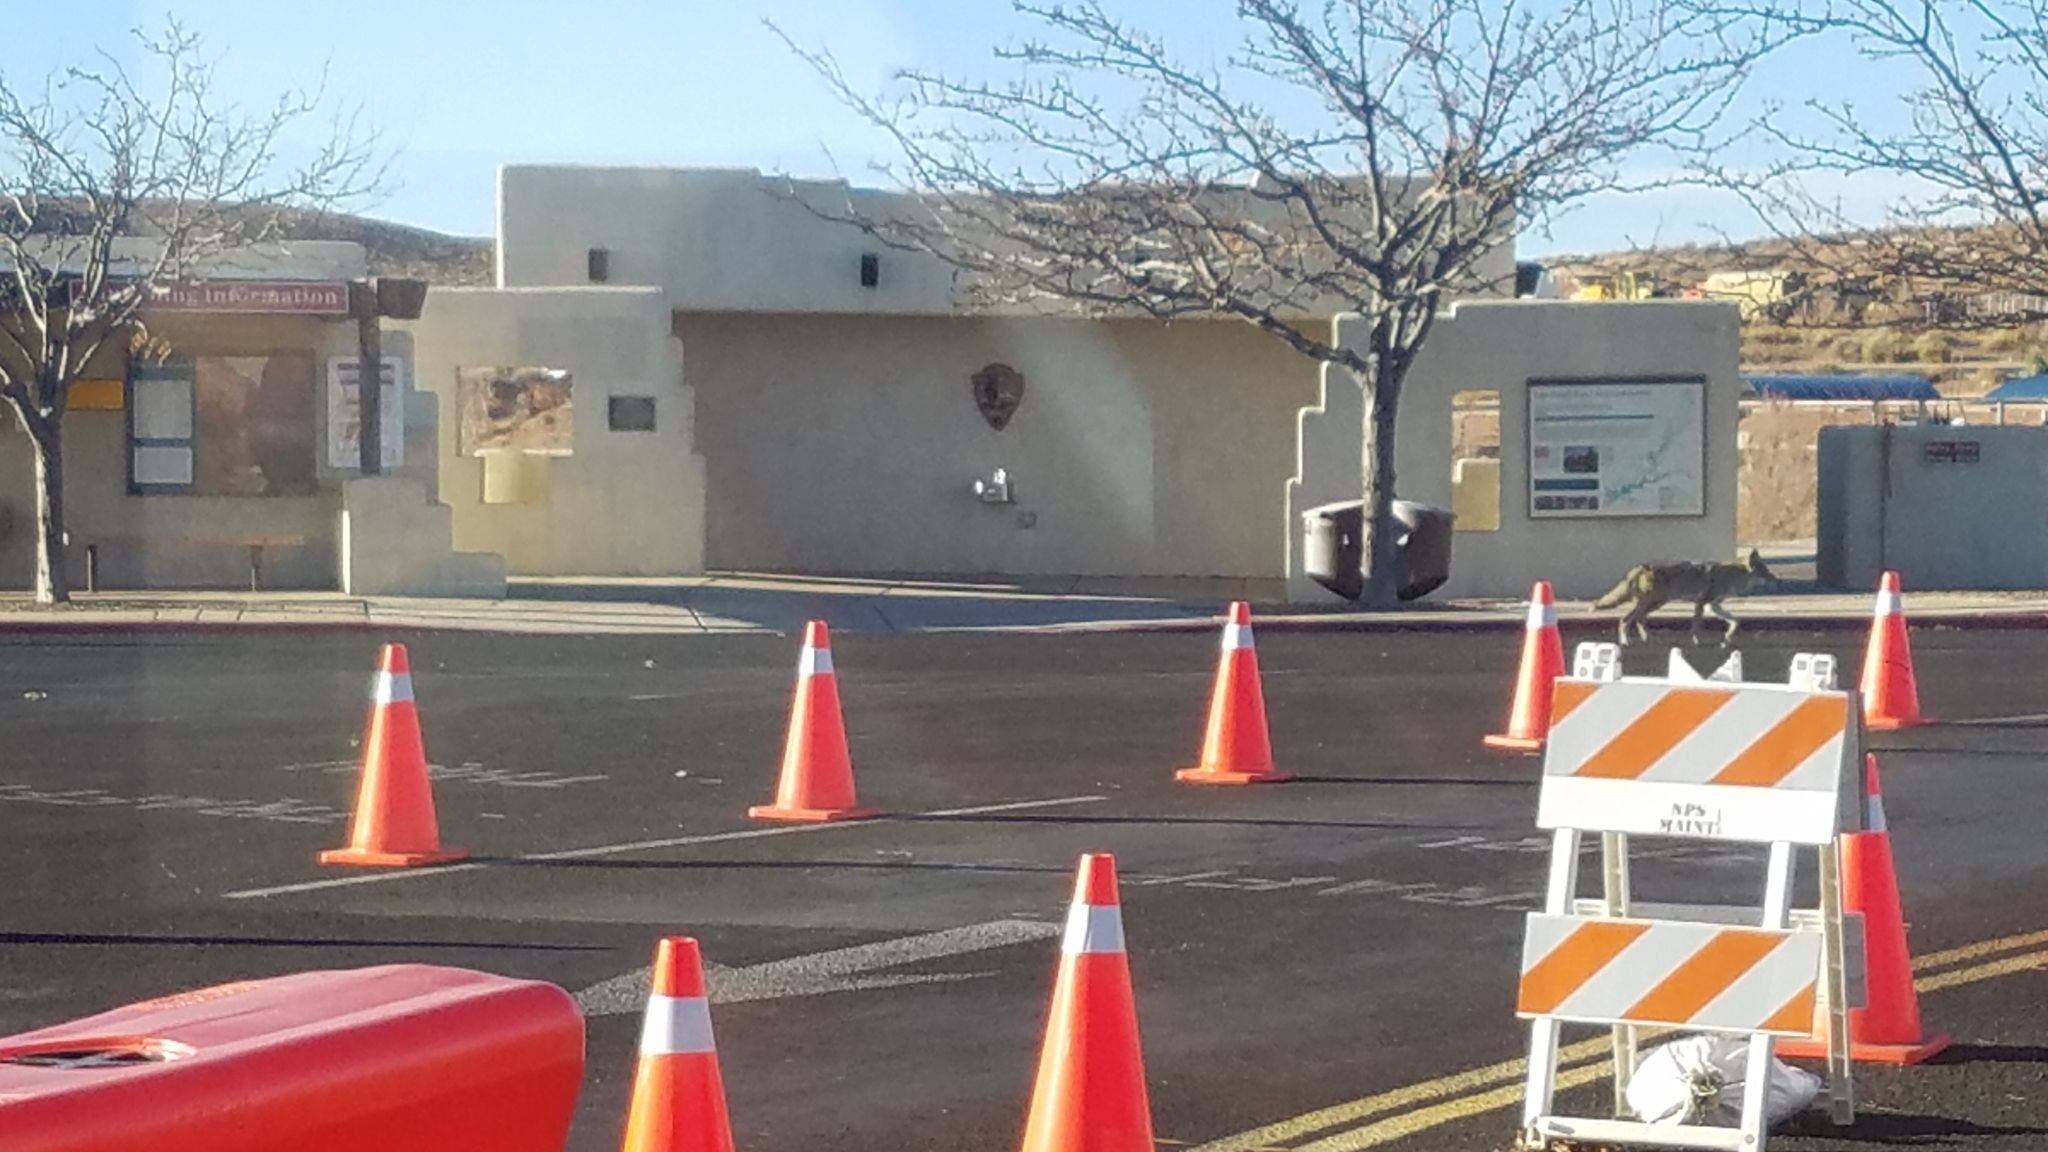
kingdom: Animalia
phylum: Chordata
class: Mammalia
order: Carnivora
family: Canidae
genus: Canis
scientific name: Canis latrans
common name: Coyote
